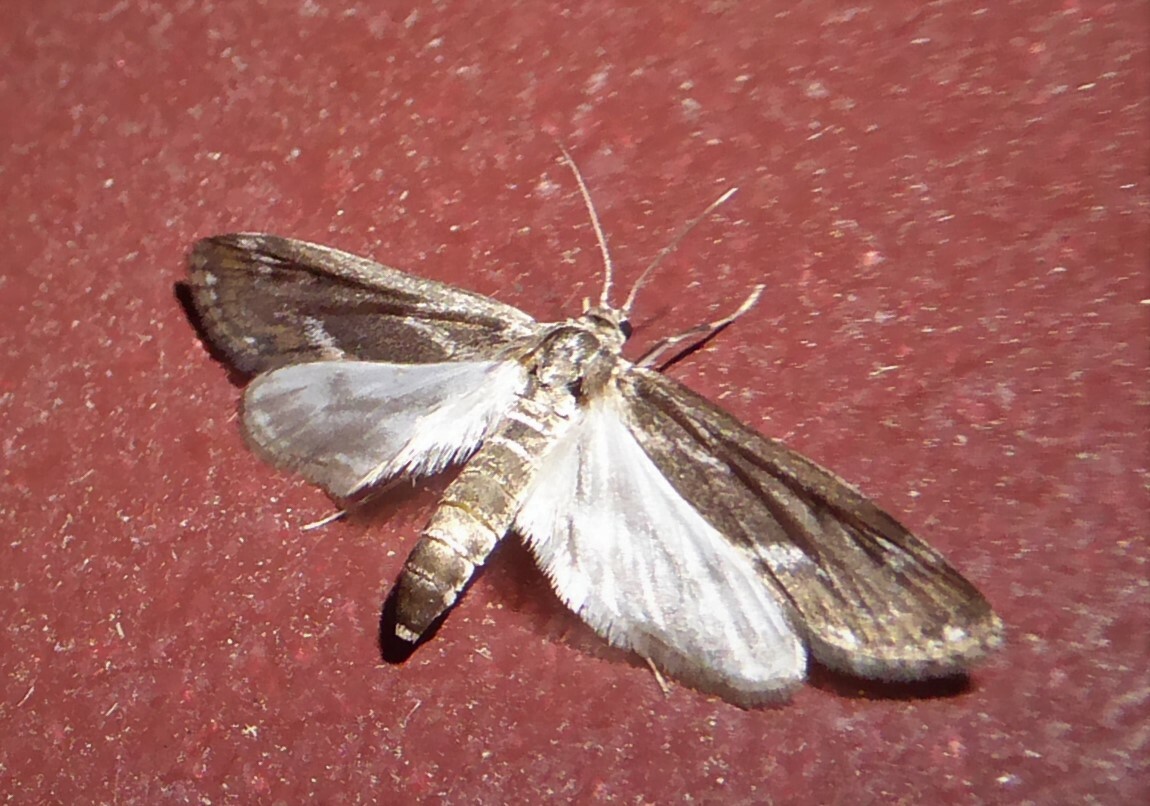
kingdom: Animalia
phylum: Arthropoda
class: Insecta
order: Lepidoptera
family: Crambidae
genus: Hygraula
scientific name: Hygraula nitens
